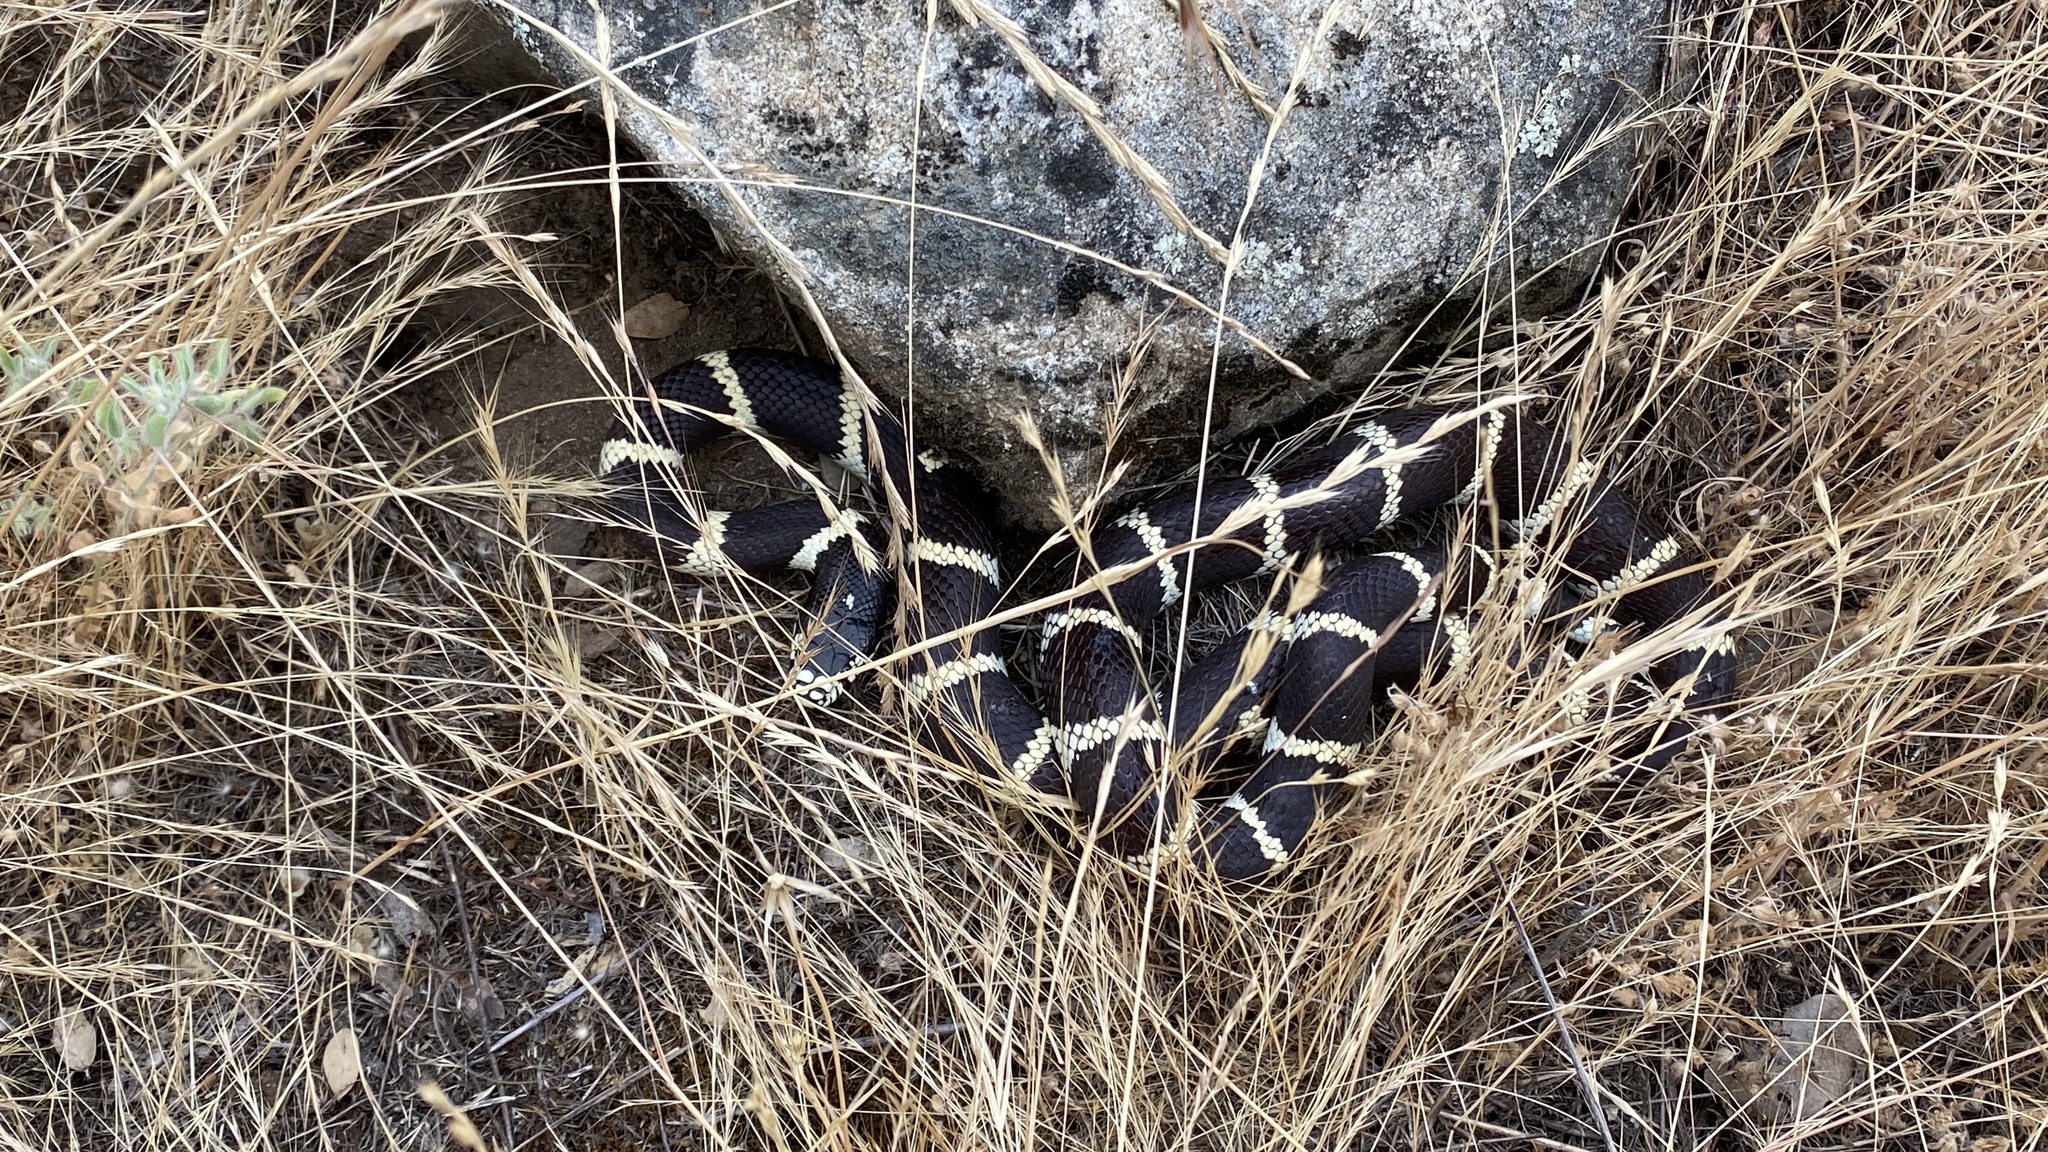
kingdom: Animalia
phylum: Chordata
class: Squamata
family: Colubridae
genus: Lampropeltis
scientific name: Lampropeltis californiae
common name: California kingsnake
